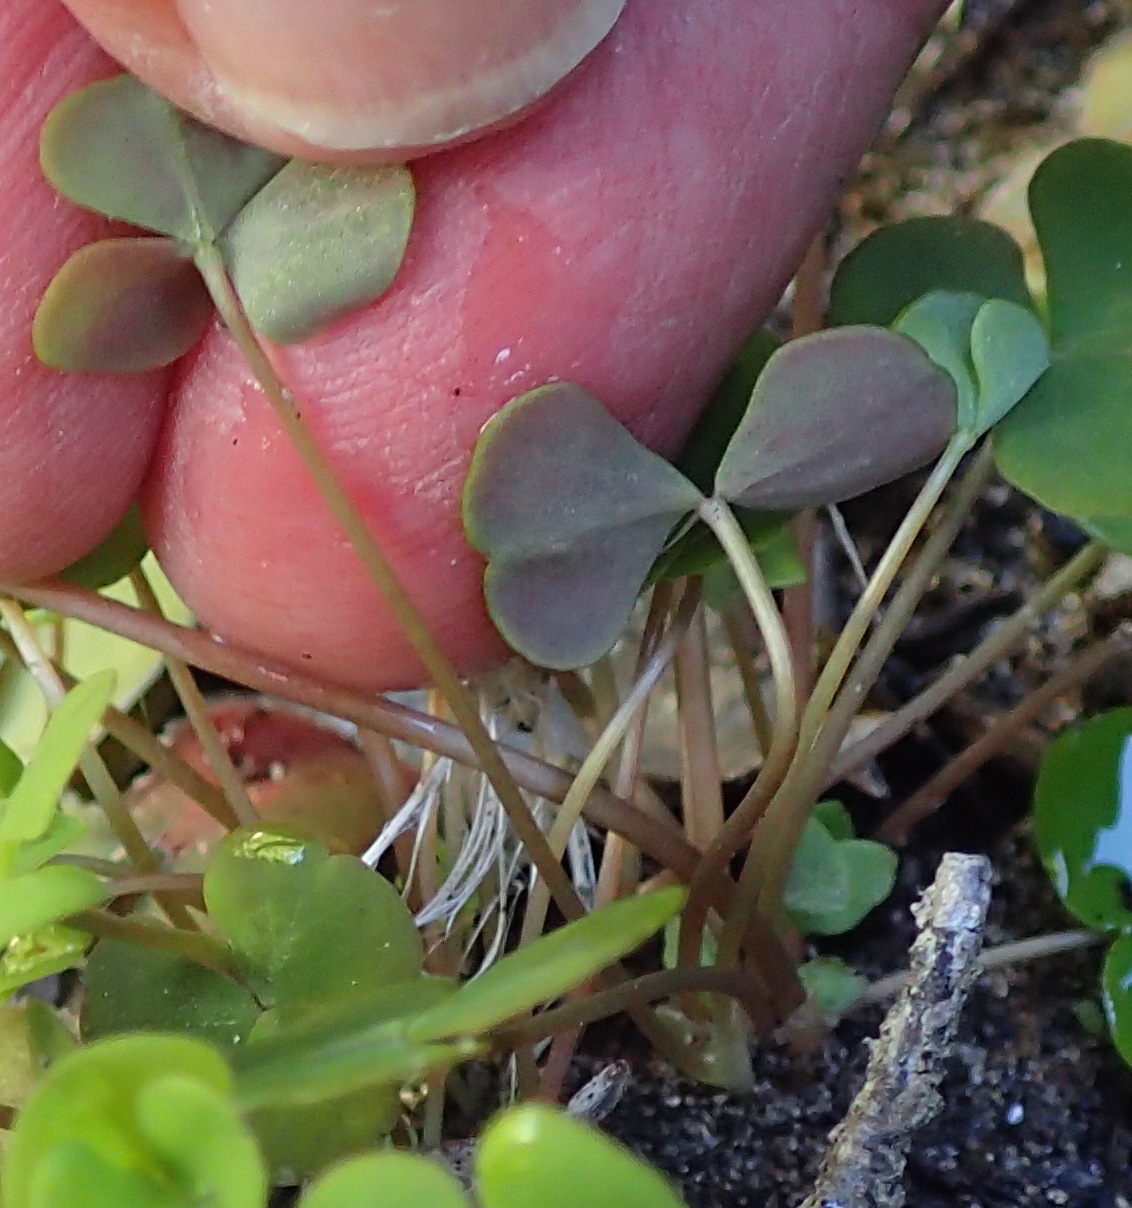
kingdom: Plantae
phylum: Tracheophyta
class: Magnoliopsida
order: Oxalidales
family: Oxalidaceae
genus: Oxalis
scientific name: Oxalis depressa
